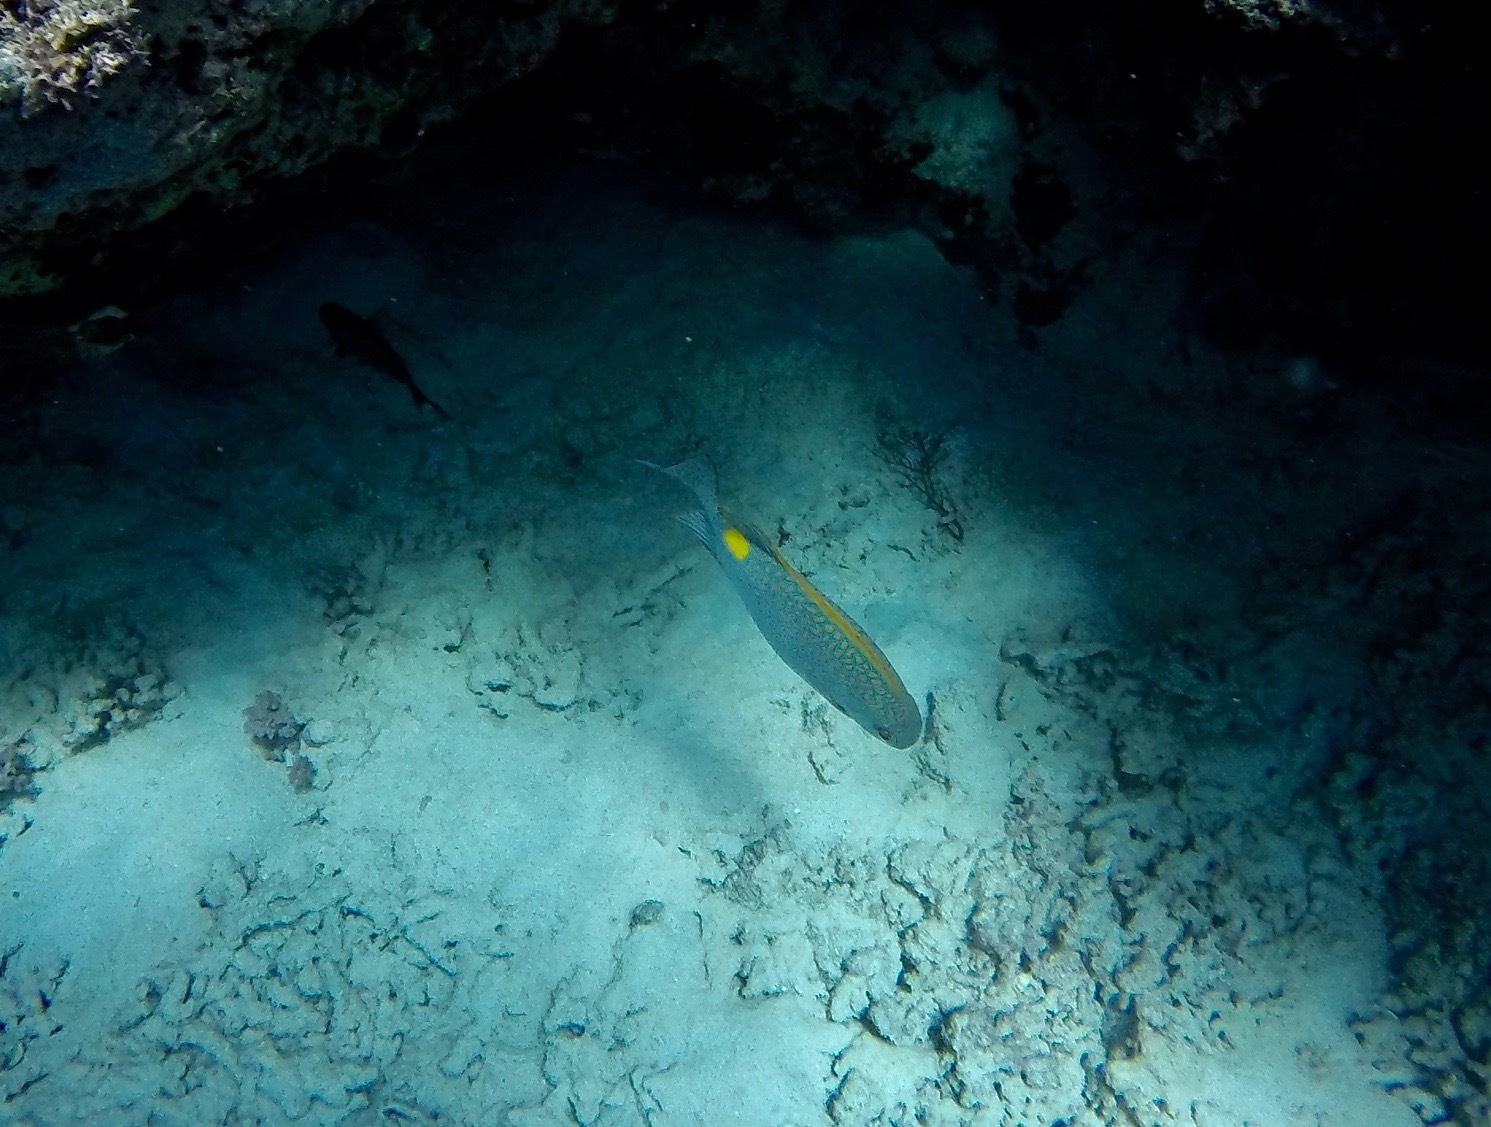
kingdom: Animalia
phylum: Chordata
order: Perciformes
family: Siganidae
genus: Siganus
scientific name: Siganus guttatus
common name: Golden rabbitfish
